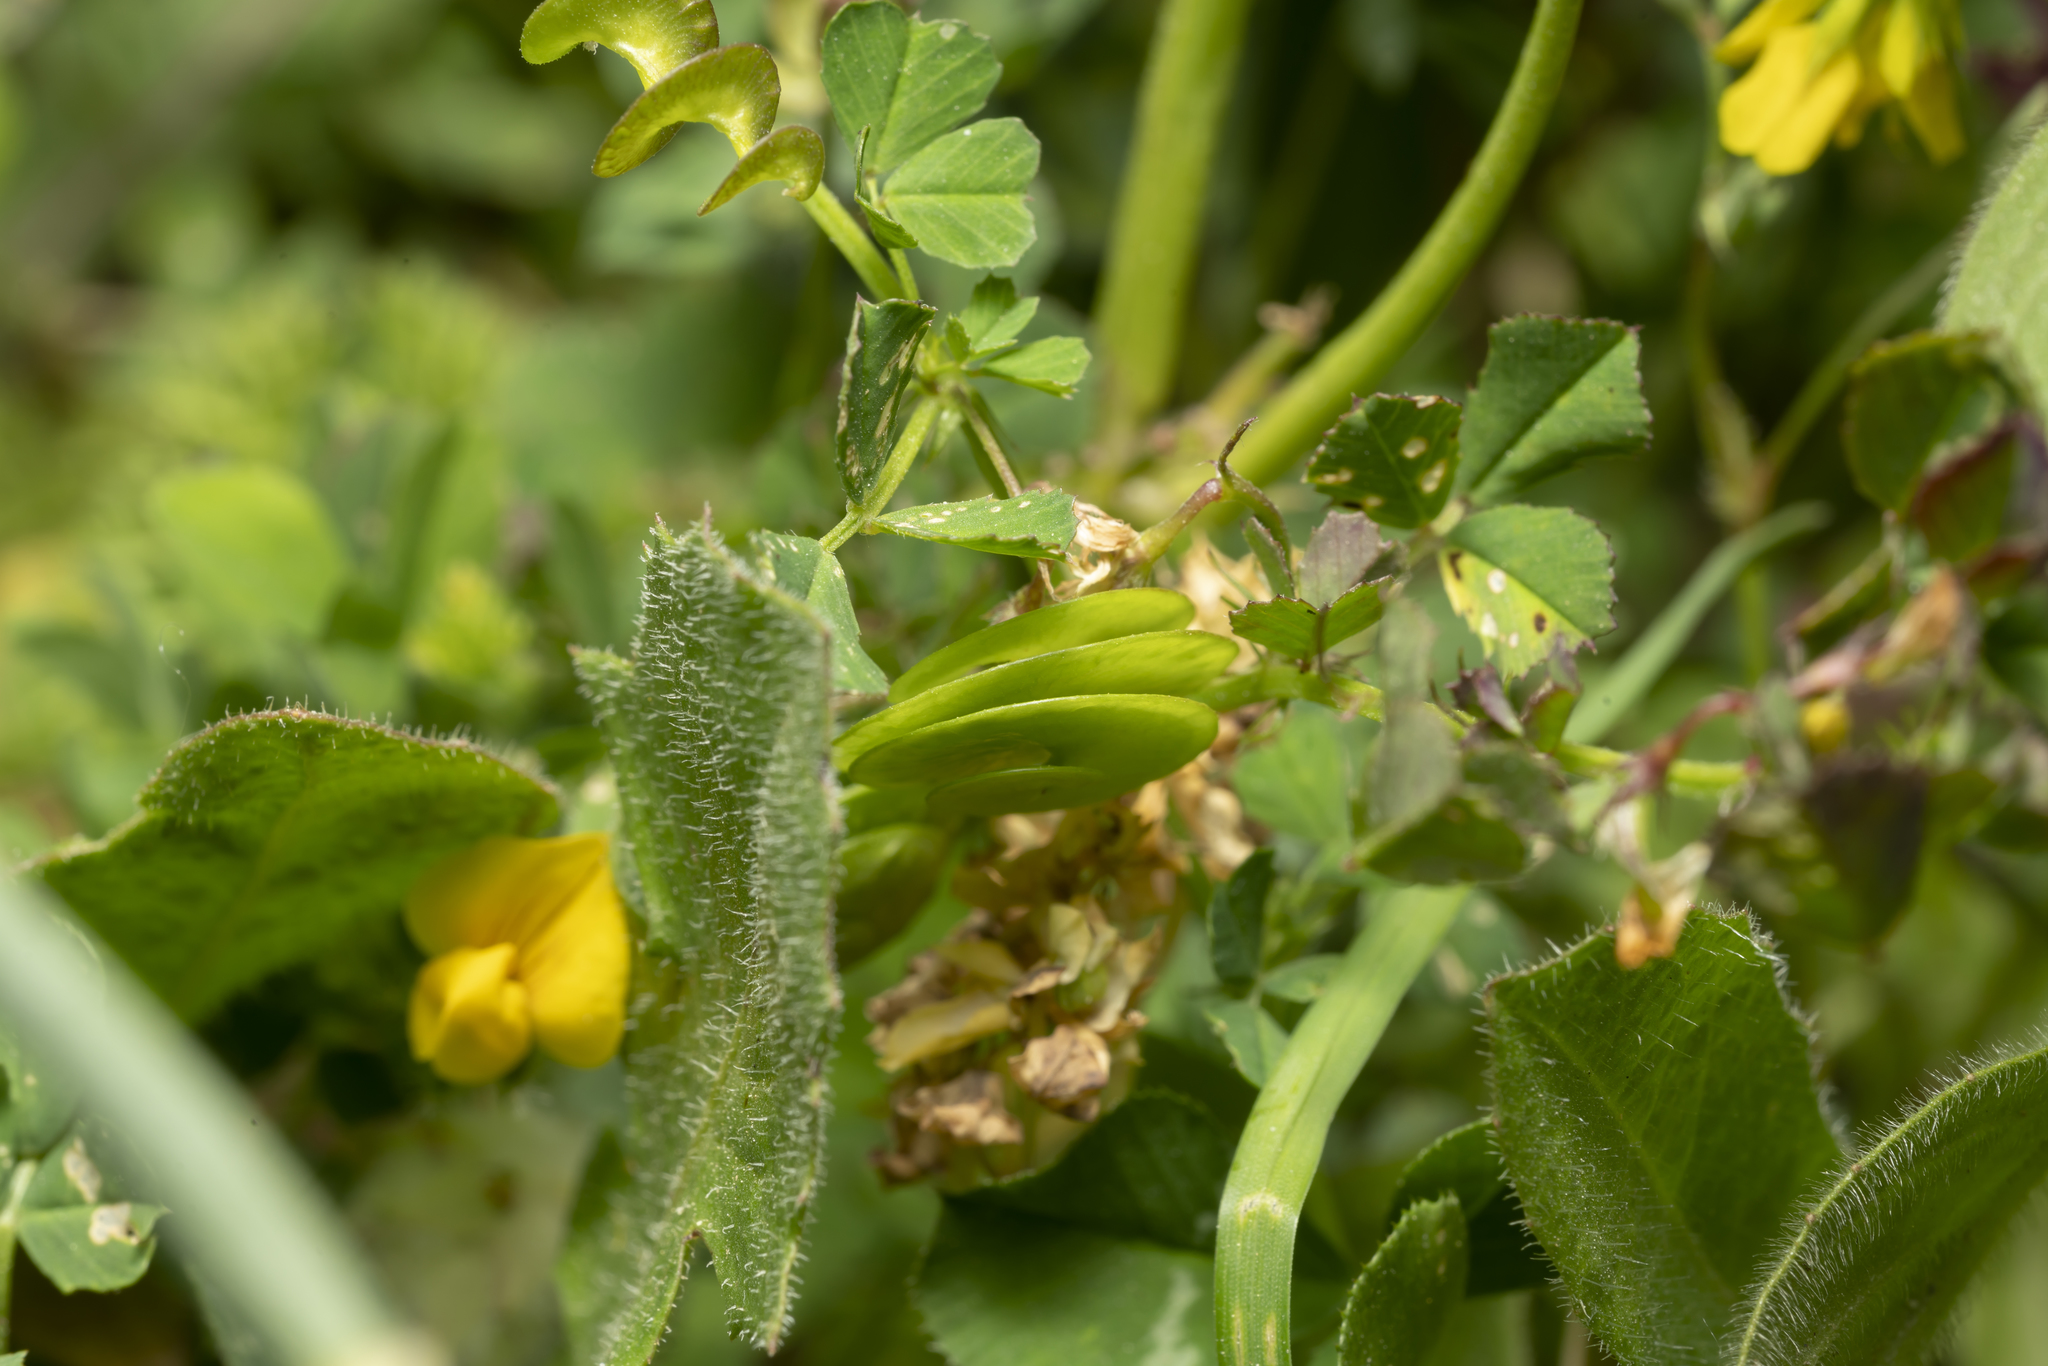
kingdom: Plantae
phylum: Tracheophyta
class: Magnoliopsida
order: Fabales
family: Fabaceae
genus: Medicago
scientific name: Medicago orbicularis
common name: Button medick
